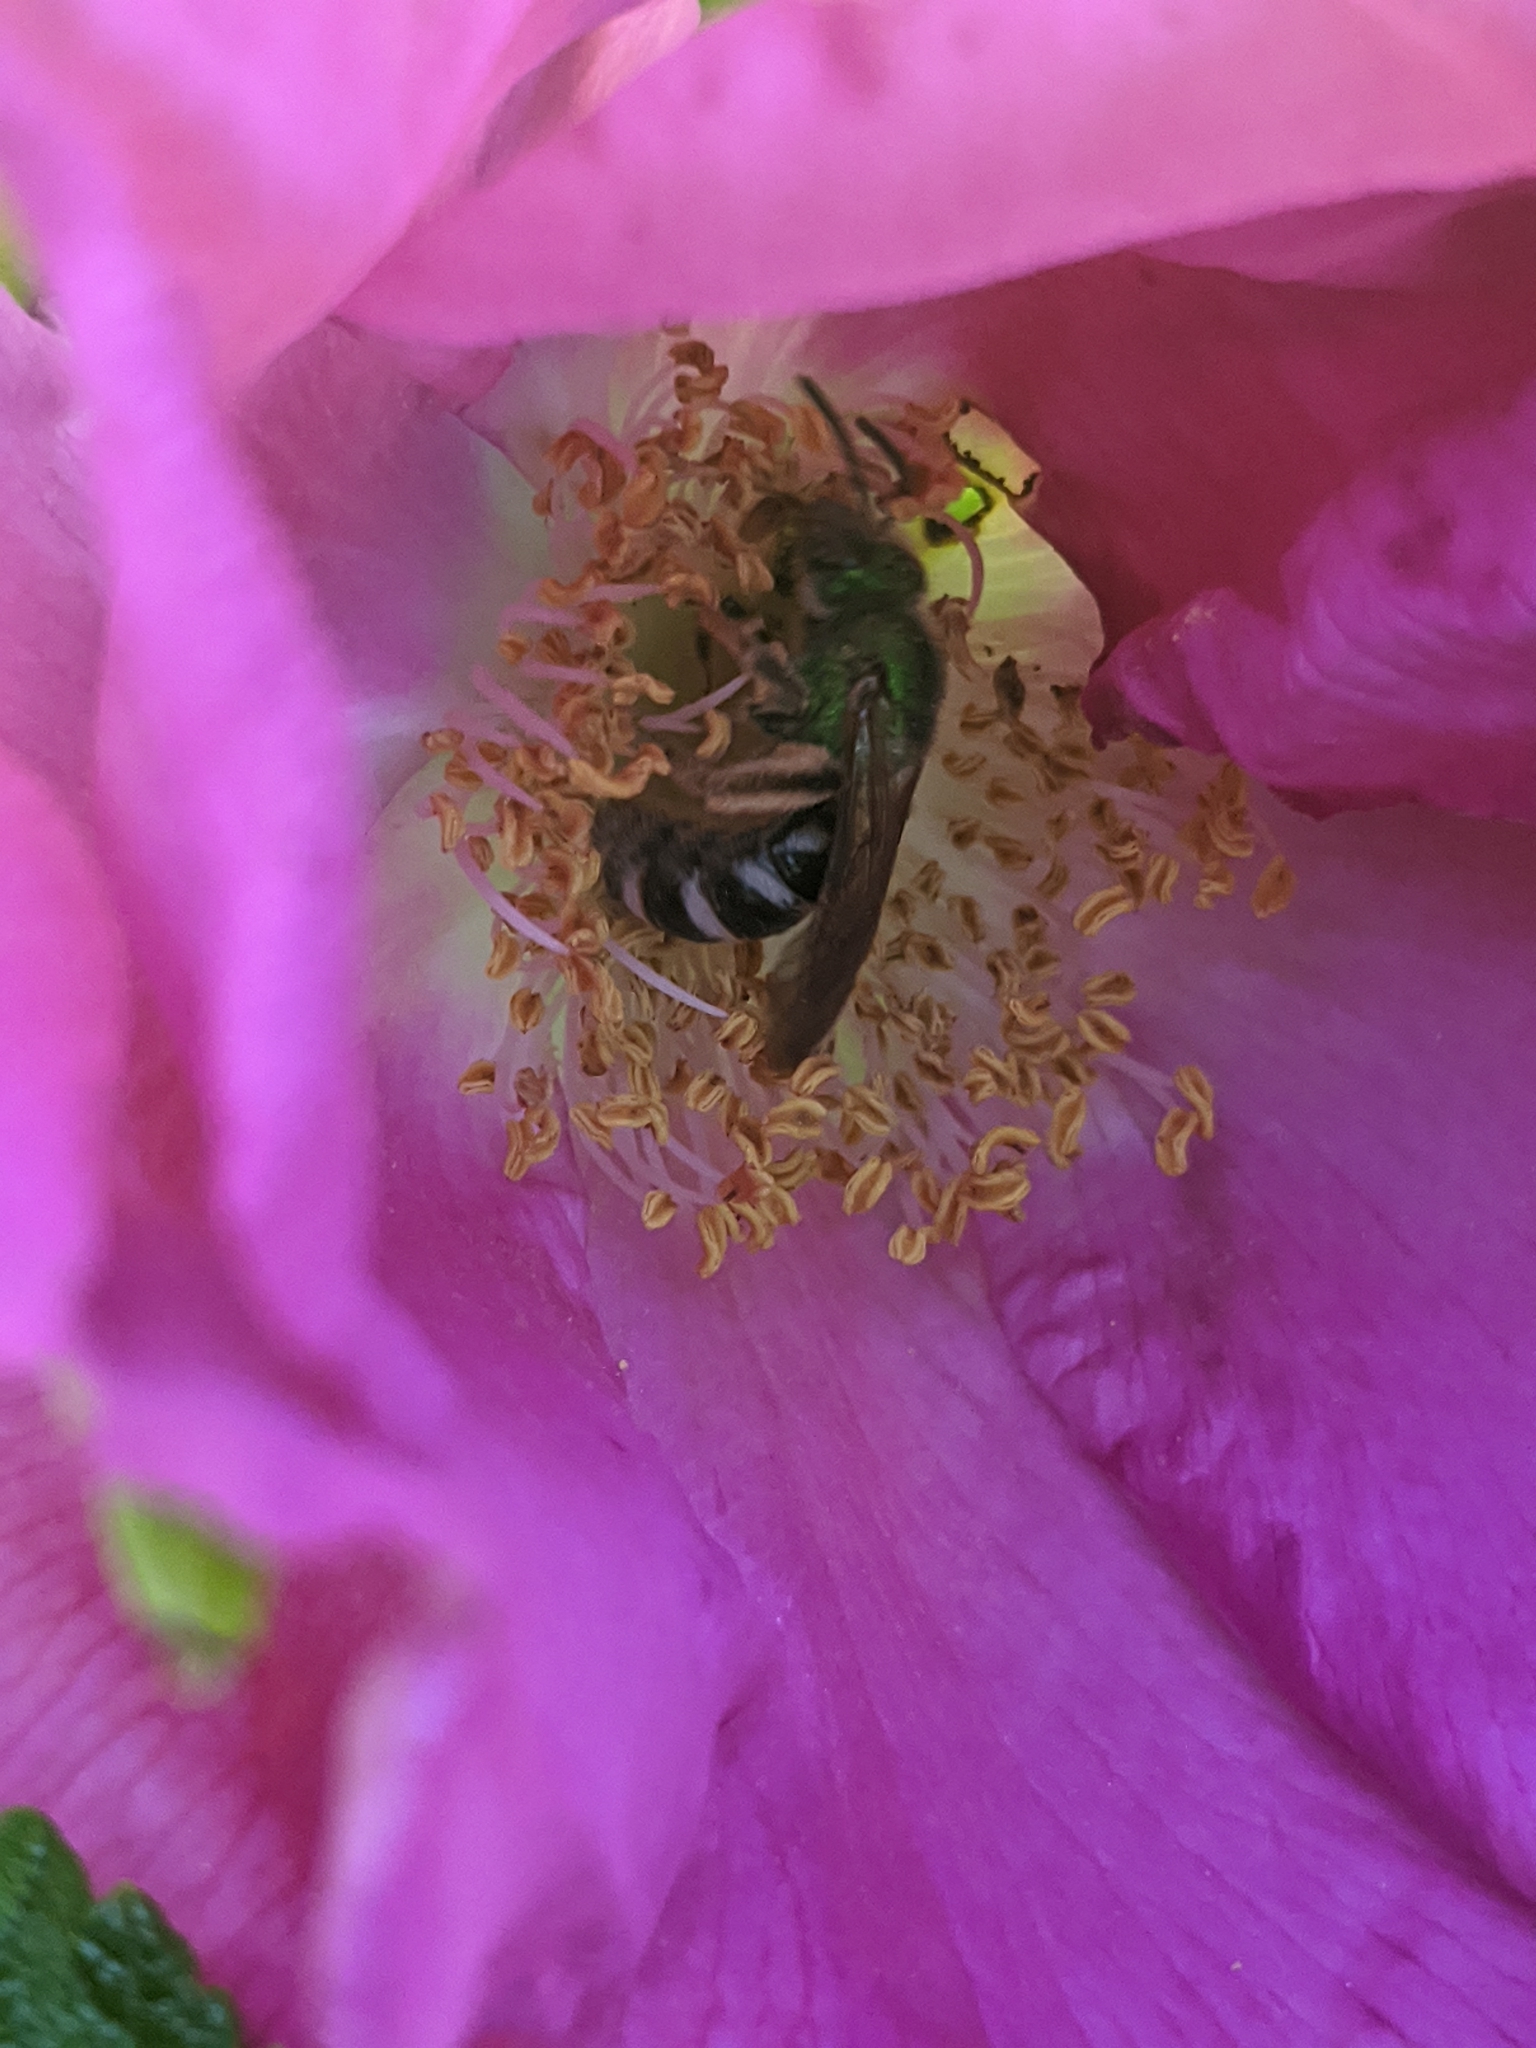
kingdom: Animalia
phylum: Arthropoda
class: Insecta
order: Hymenoptera
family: Halictidae
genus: Agapostemon
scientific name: Agapostemon virescens
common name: Bicolored striped sweat bee
